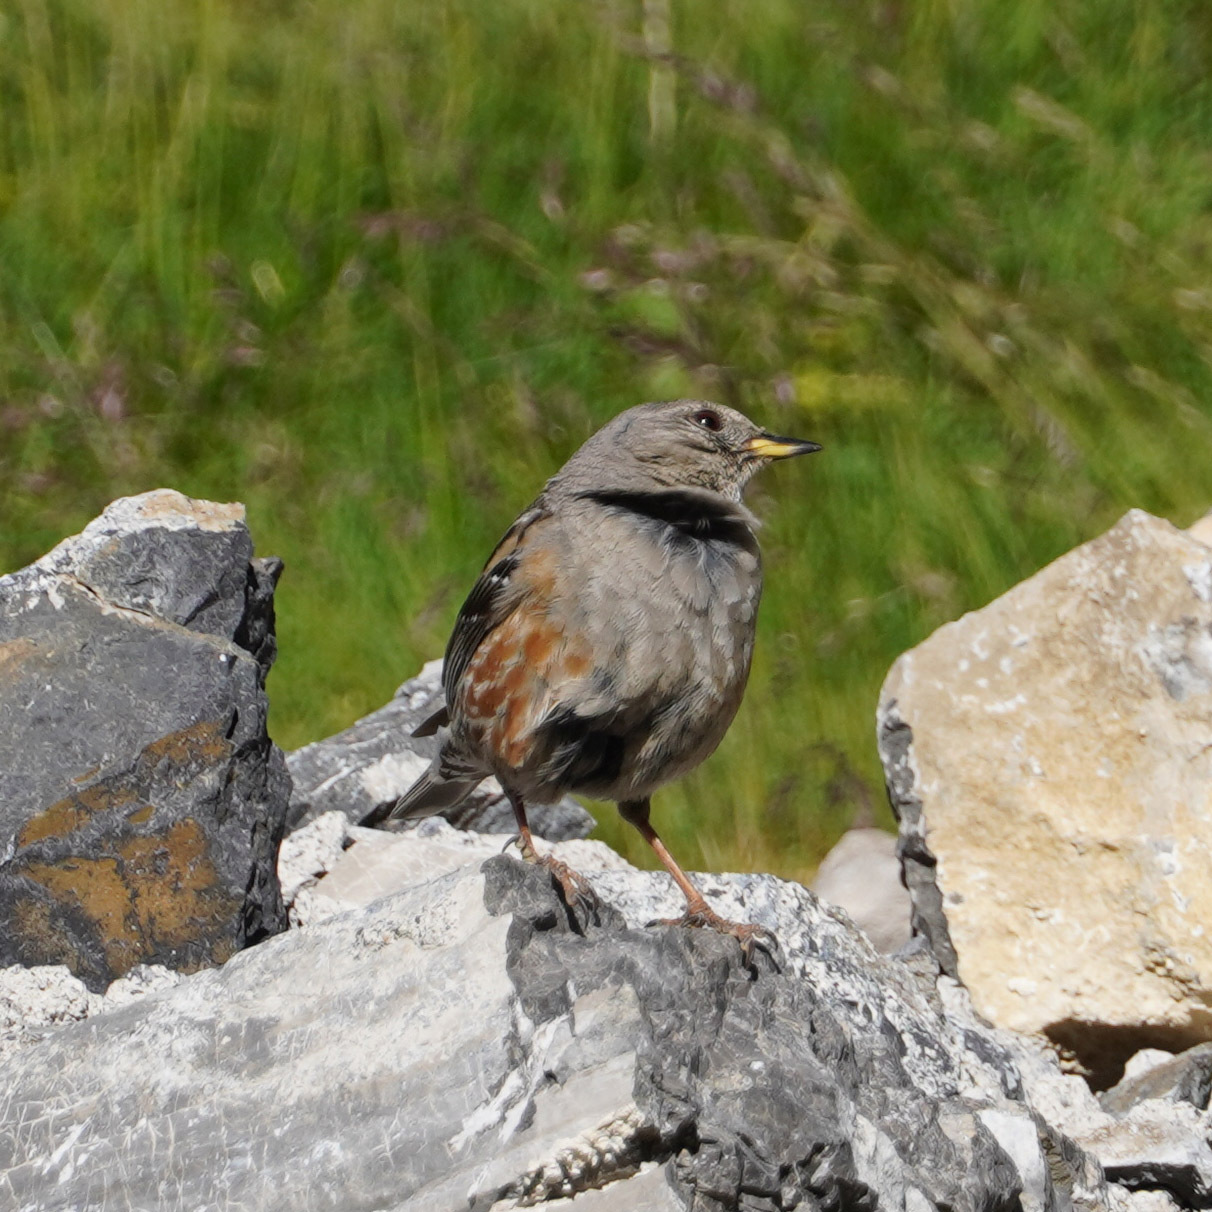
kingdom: Animalia
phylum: Chordata
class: Aves
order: Passeriformes
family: Prunellidae
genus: Prunella
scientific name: Prunella collaris
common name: Alpine accentor
